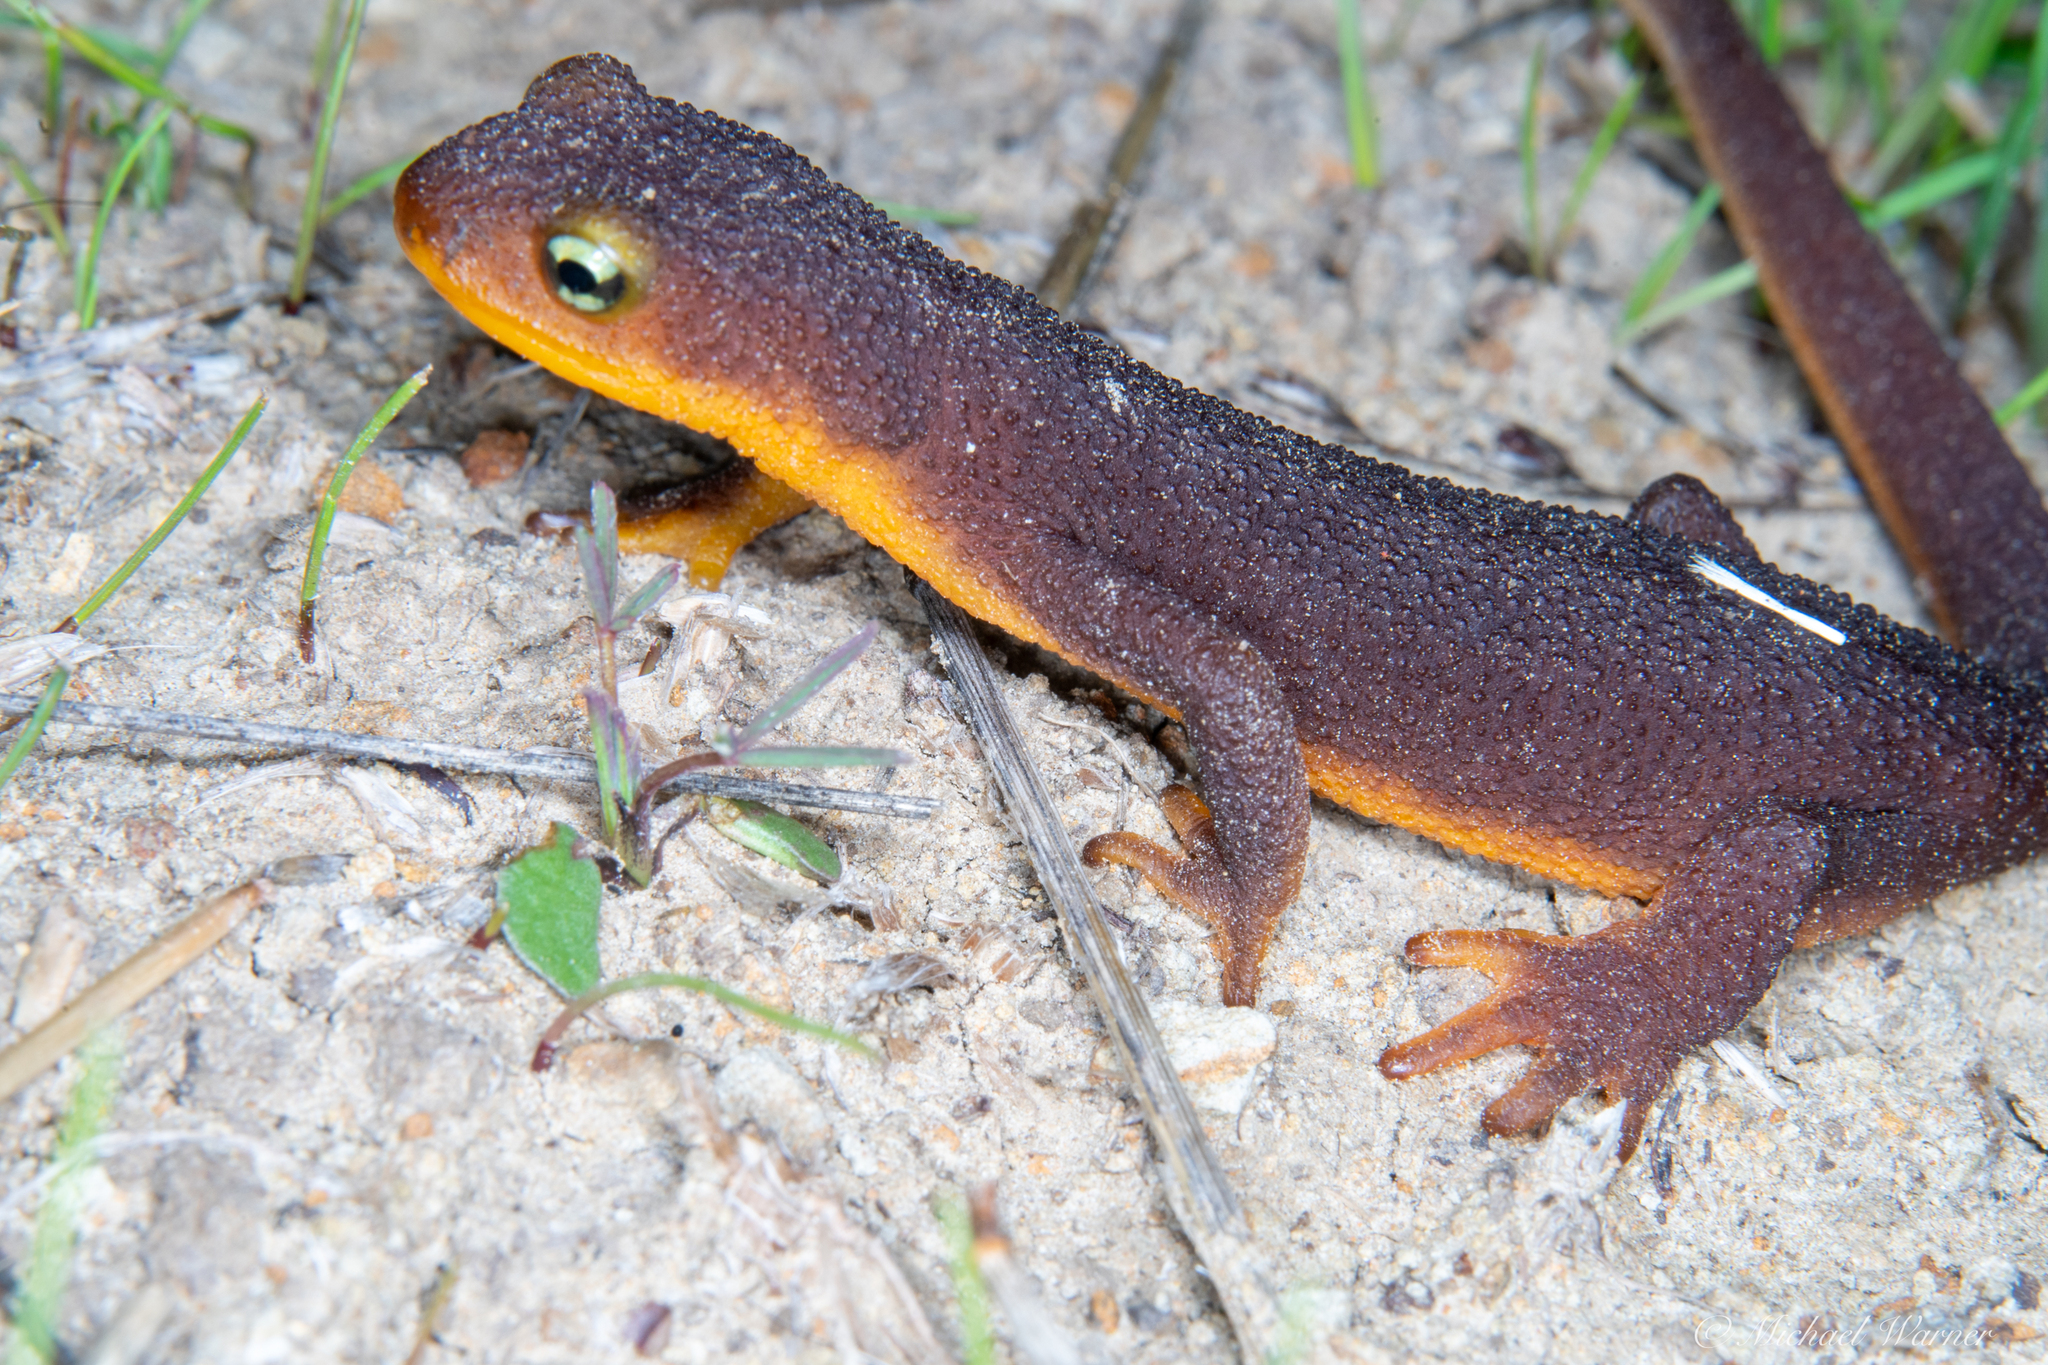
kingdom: Animalia
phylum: Chordata
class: Amphibia
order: Caudata
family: Salamandridae
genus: Taricha
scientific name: Taricha torosa
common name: California newt
